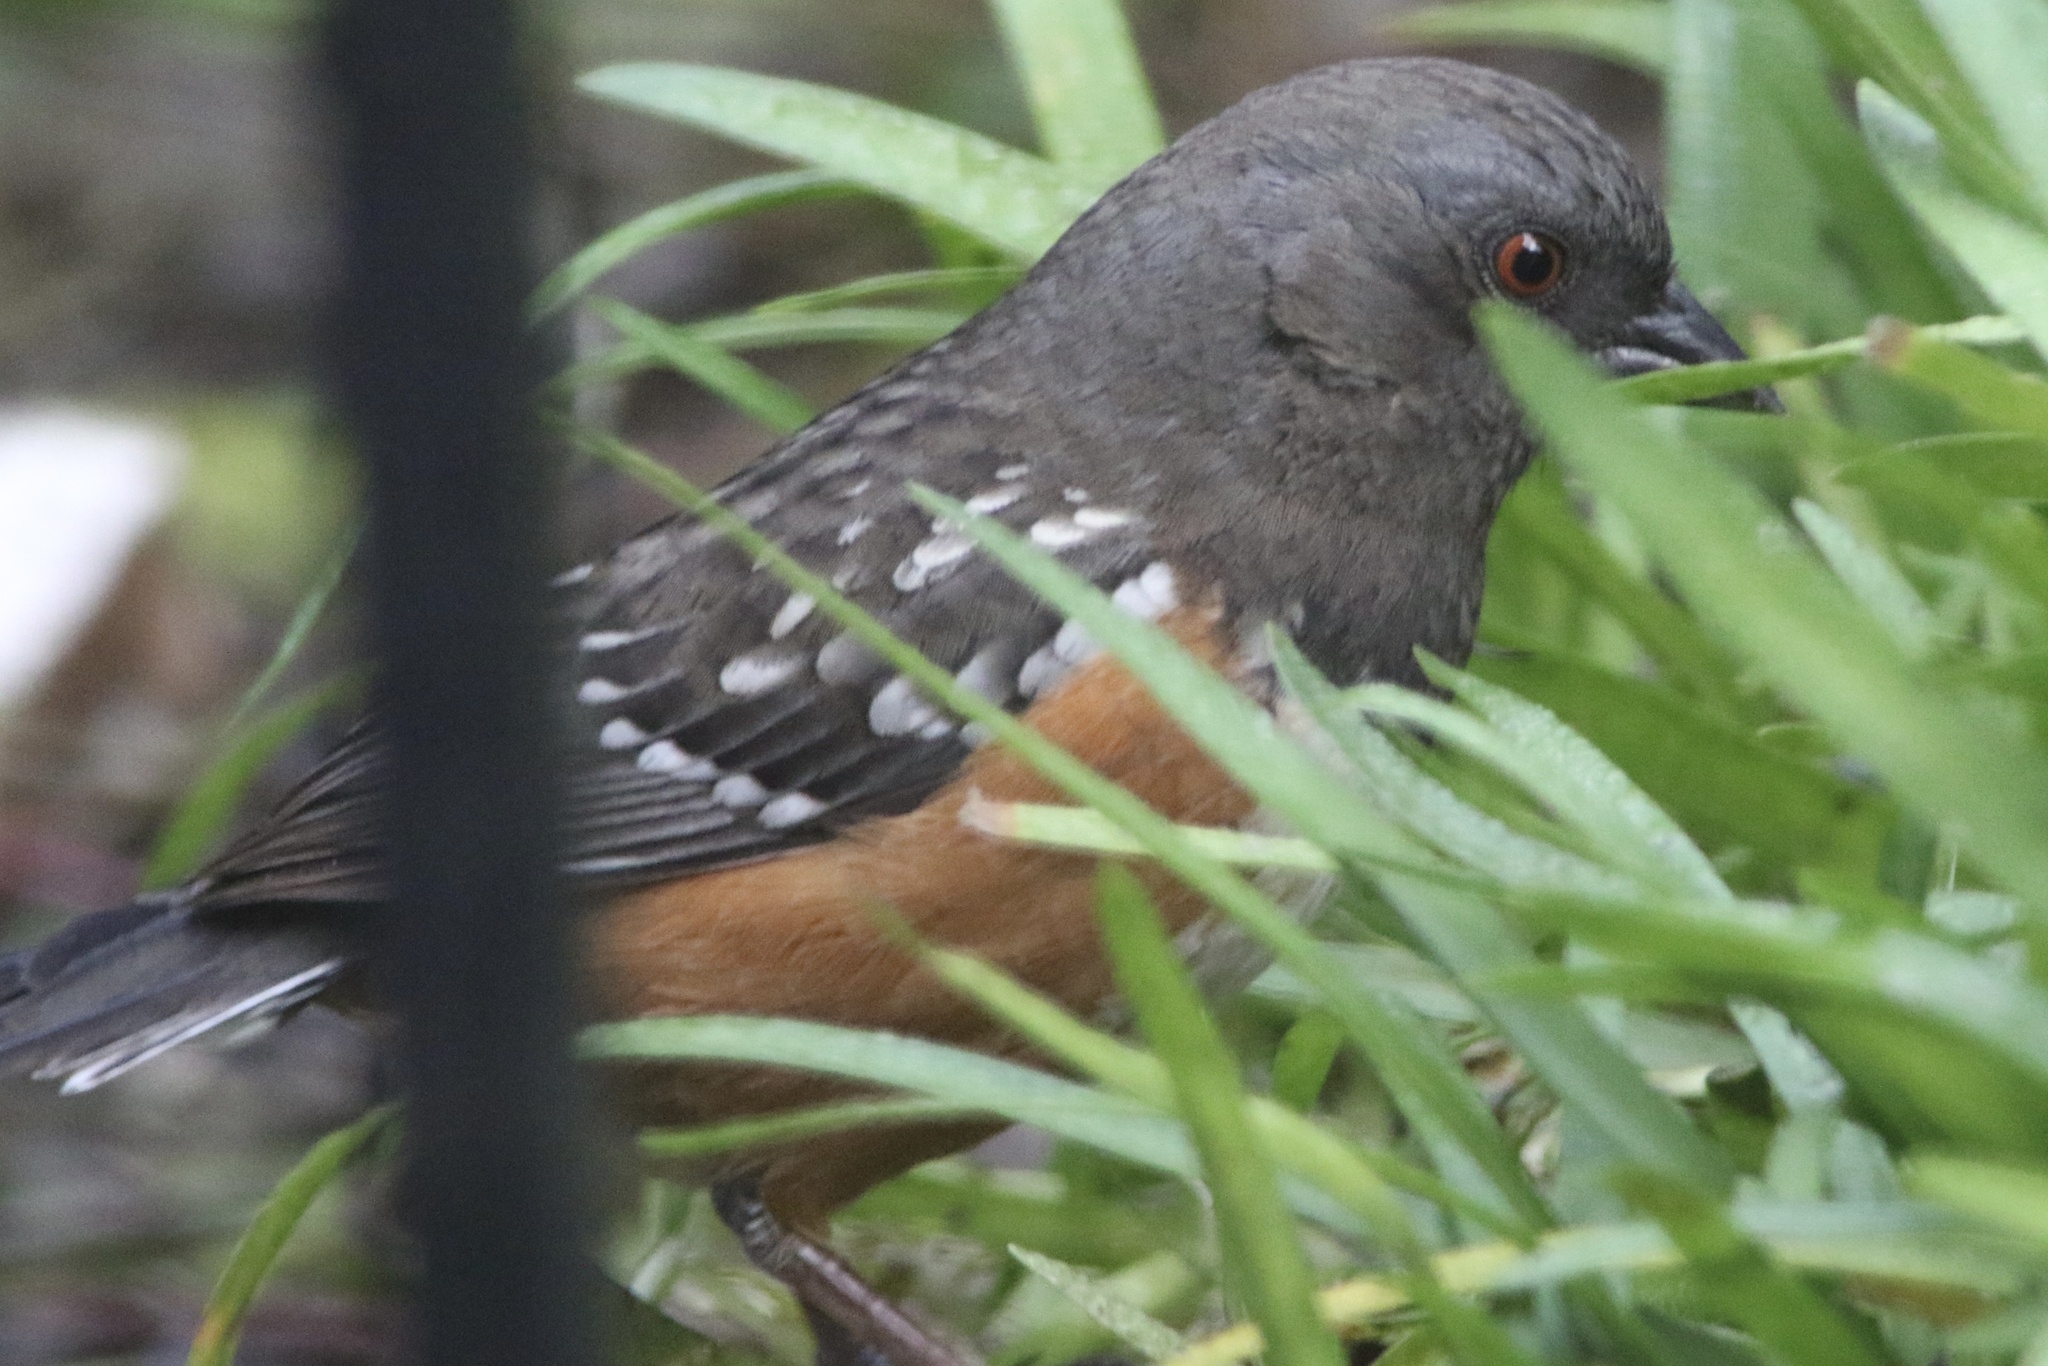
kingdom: Animalia
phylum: Chordata
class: Aves
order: Passeriformes
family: Passerellidae
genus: Pipilo
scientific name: Pipilo maculatus
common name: Spotted towhee
